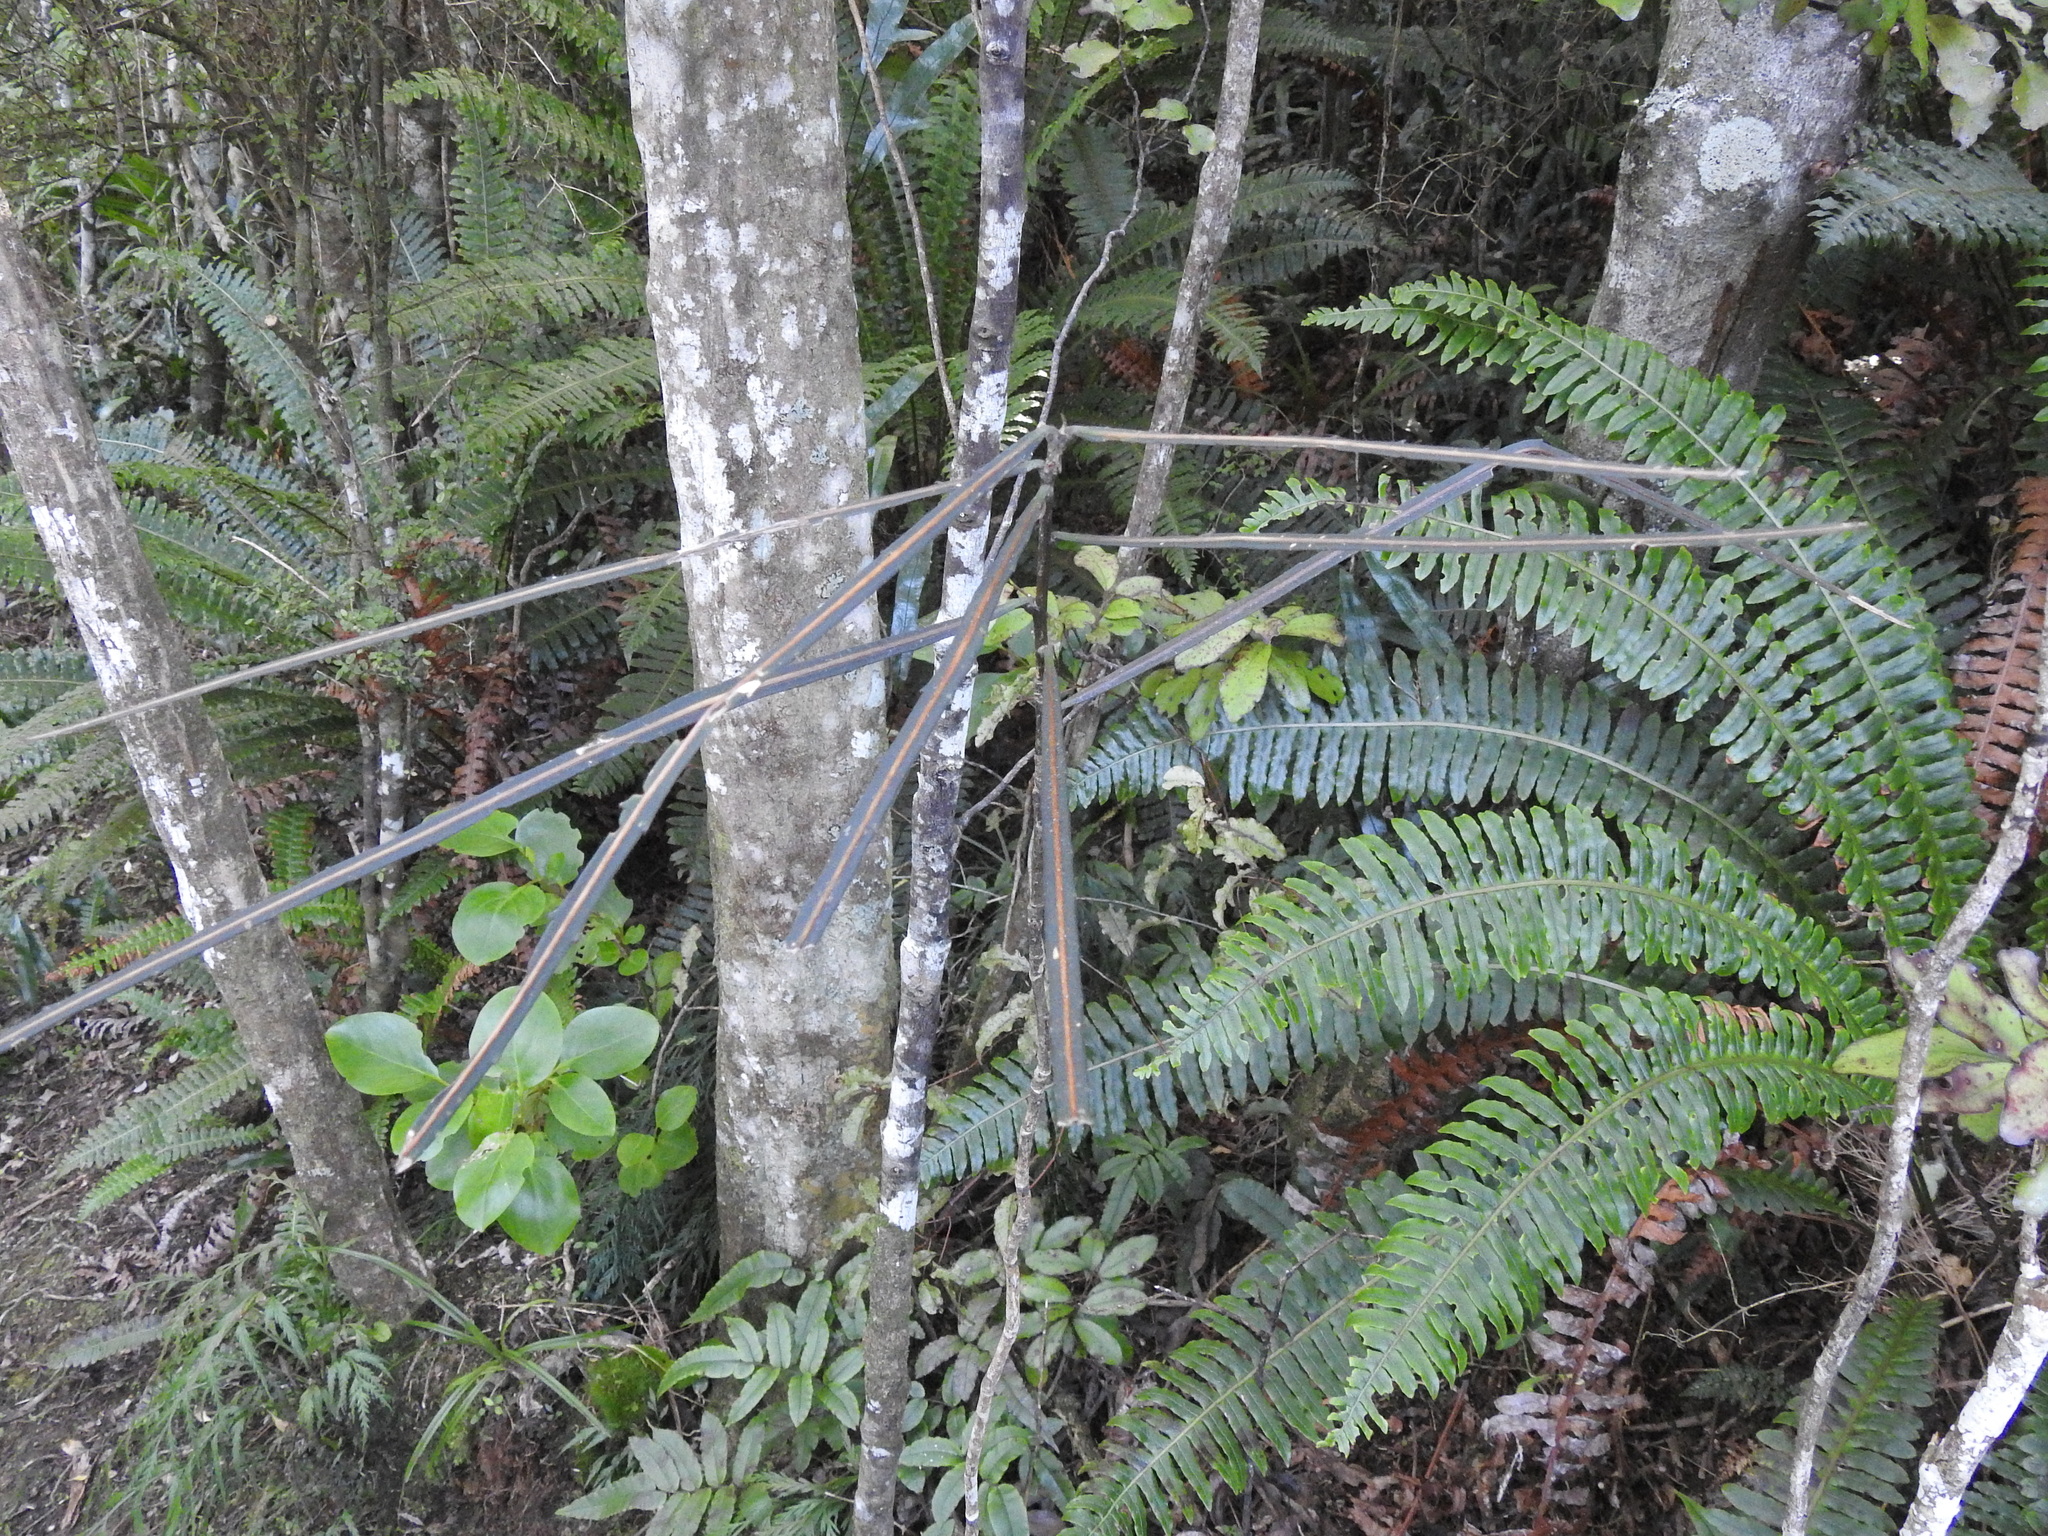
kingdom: Plantae
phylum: Tracheophyta
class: Magnoliopsida
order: Apiales
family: Araliaceae
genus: Pseudopanax
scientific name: Pseudopanax crassifolius
